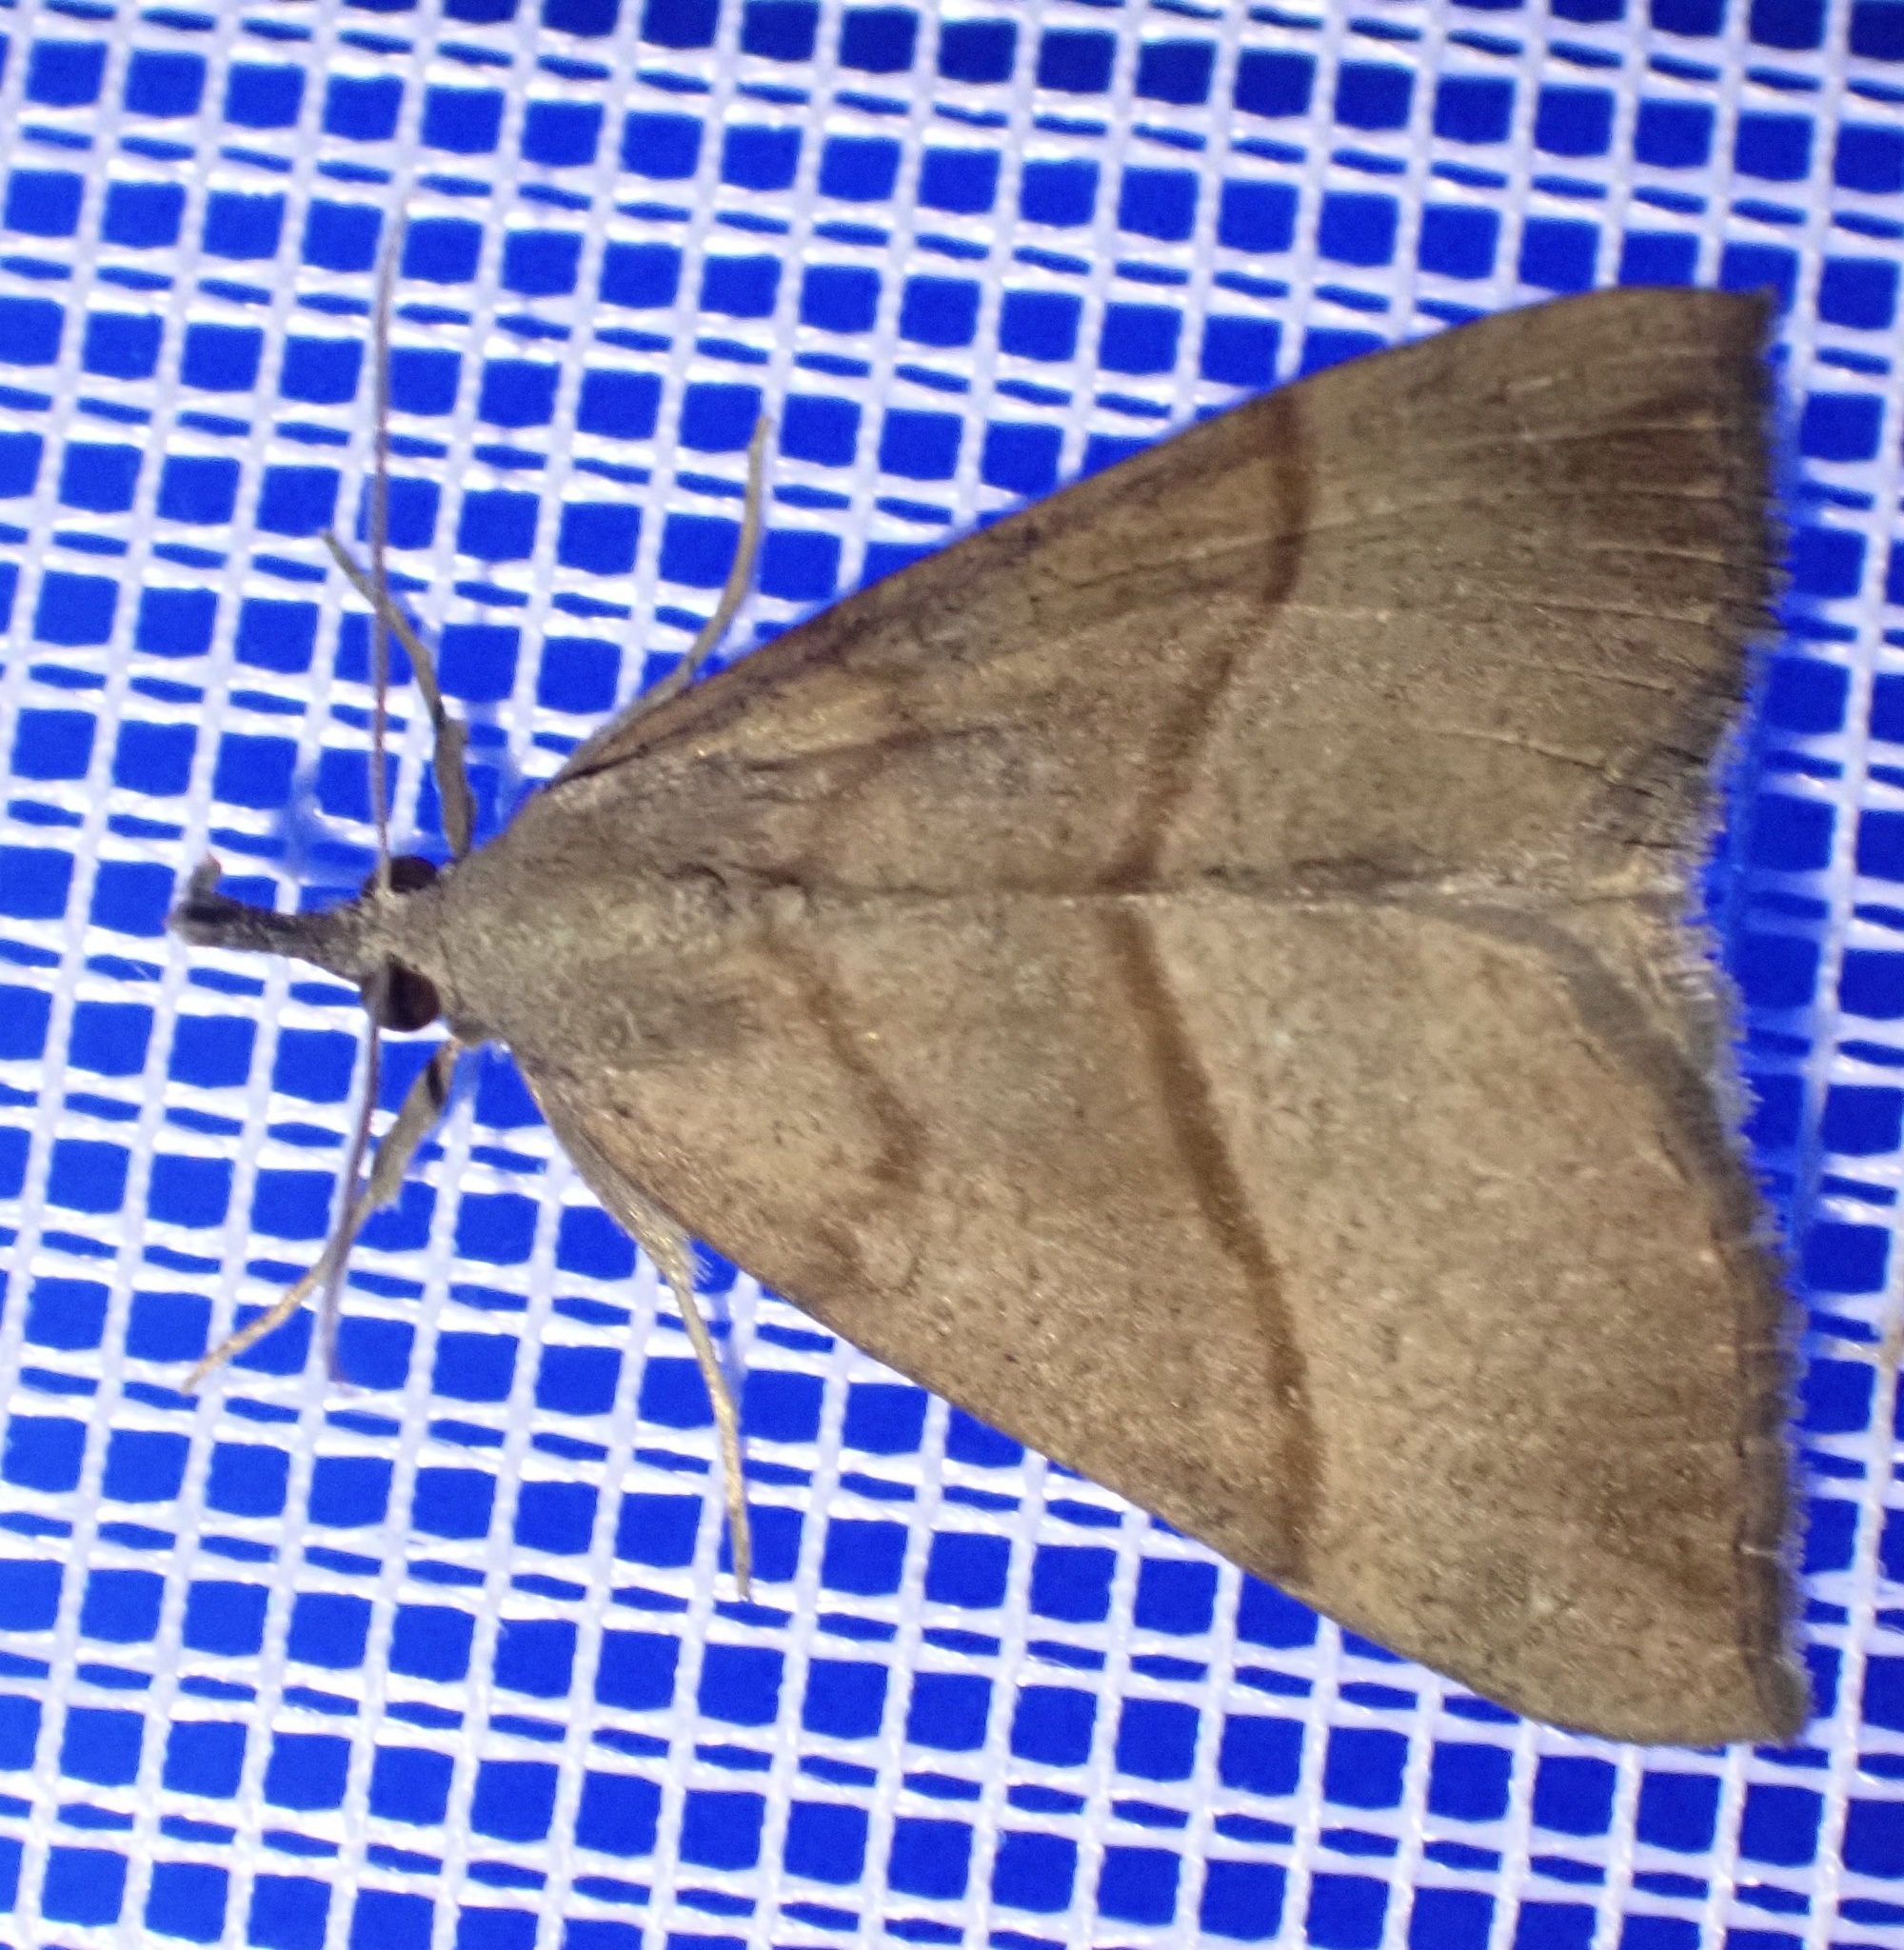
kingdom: Animalia
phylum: Arthropoda
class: Insecta
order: Lepidoptera
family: Erebidae
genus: Hypena
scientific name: Hypena proboscidalis
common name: Snout
